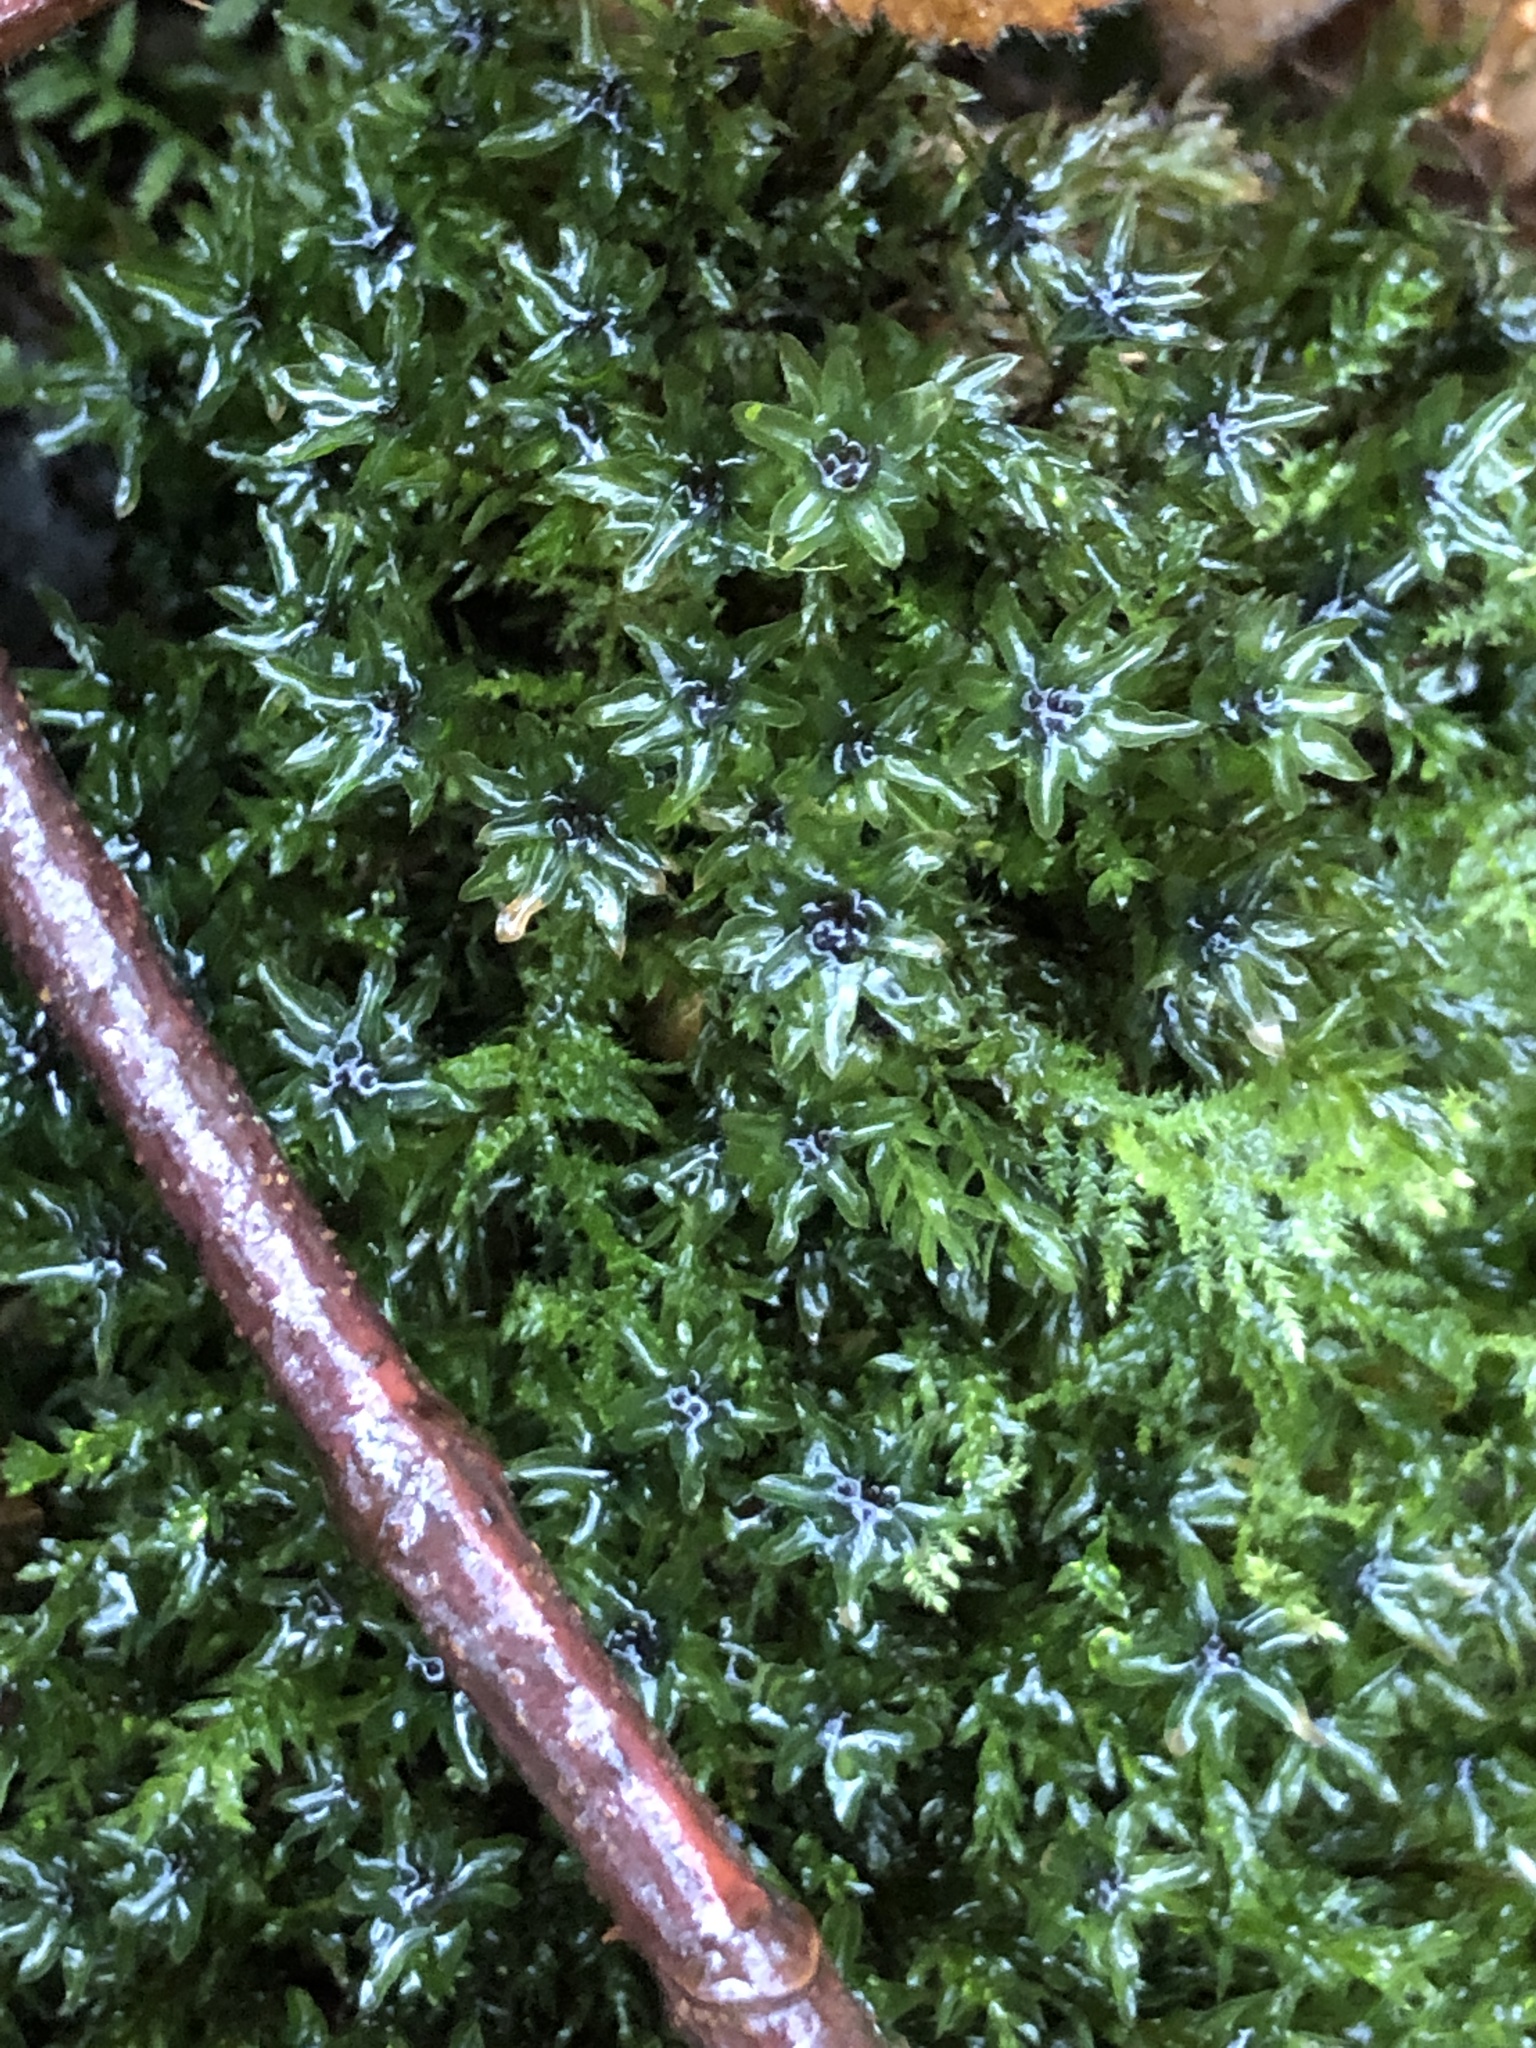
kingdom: Plantae
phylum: Bryophyta
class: Bryopsida
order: Bryales
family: Mniaceae
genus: Mnium
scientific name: Mnium hornum
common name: Swan's-neck leafy moss
